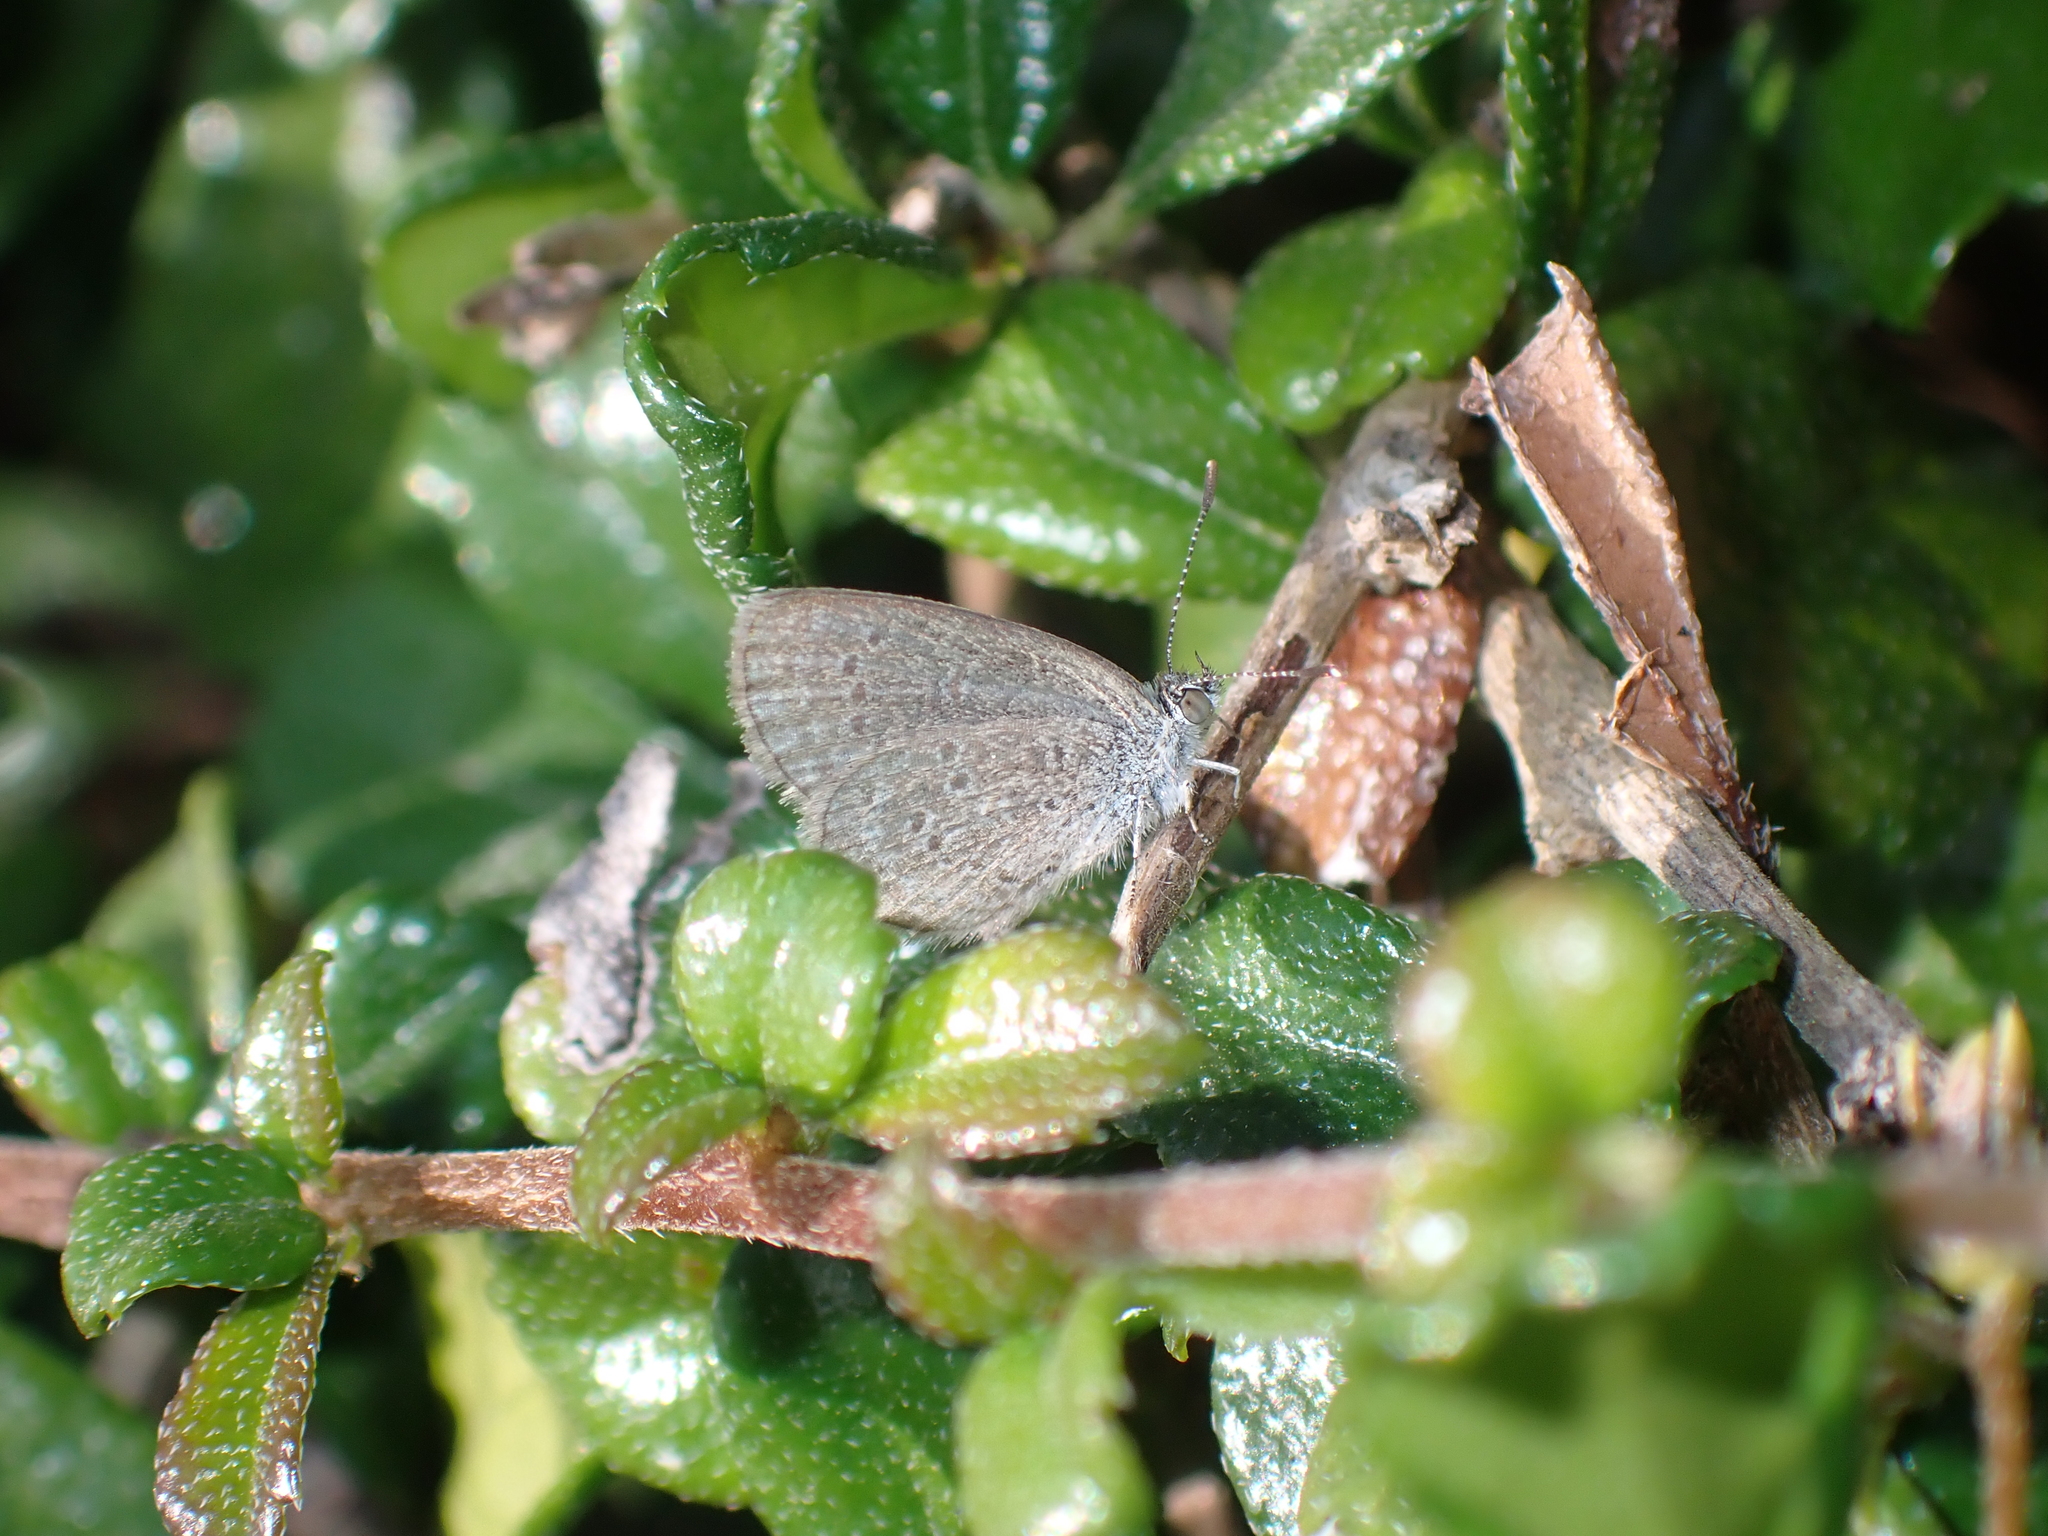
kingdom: Animalia
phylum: Arthropoda
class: Insecta
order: Lepidoptera
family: Lycaenidae
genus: Zizina
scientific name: Zizina otis
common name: Lesser grass blue
